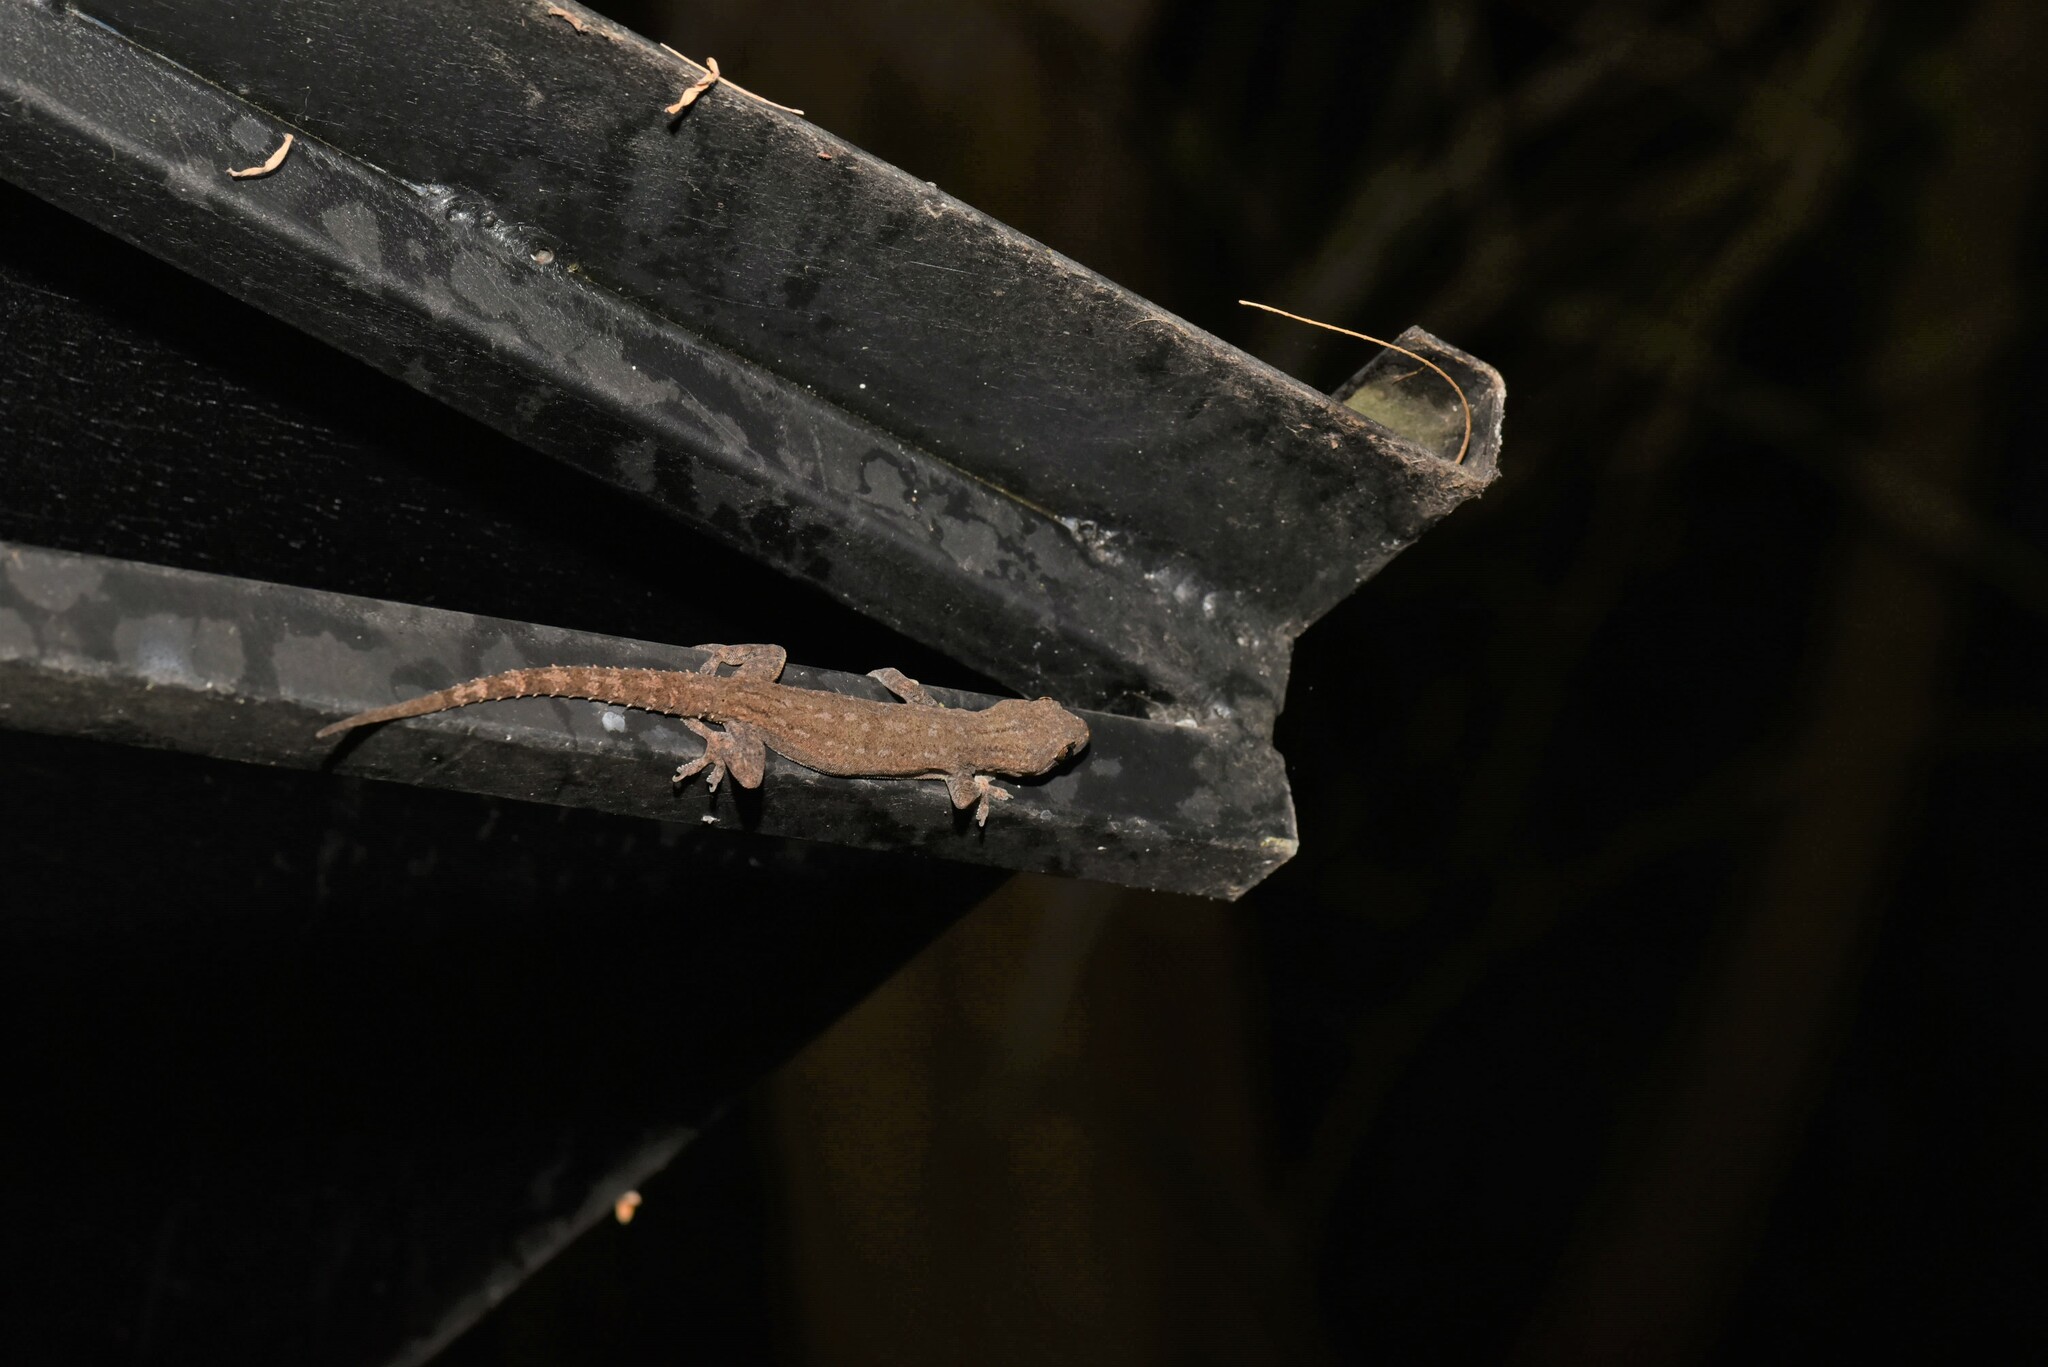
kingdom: Animalia
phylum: Chordata
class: Squamata
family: Gekkonidae
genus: Hemidactylus
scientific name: Hemidactylus frenatus
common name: Common house gecko
